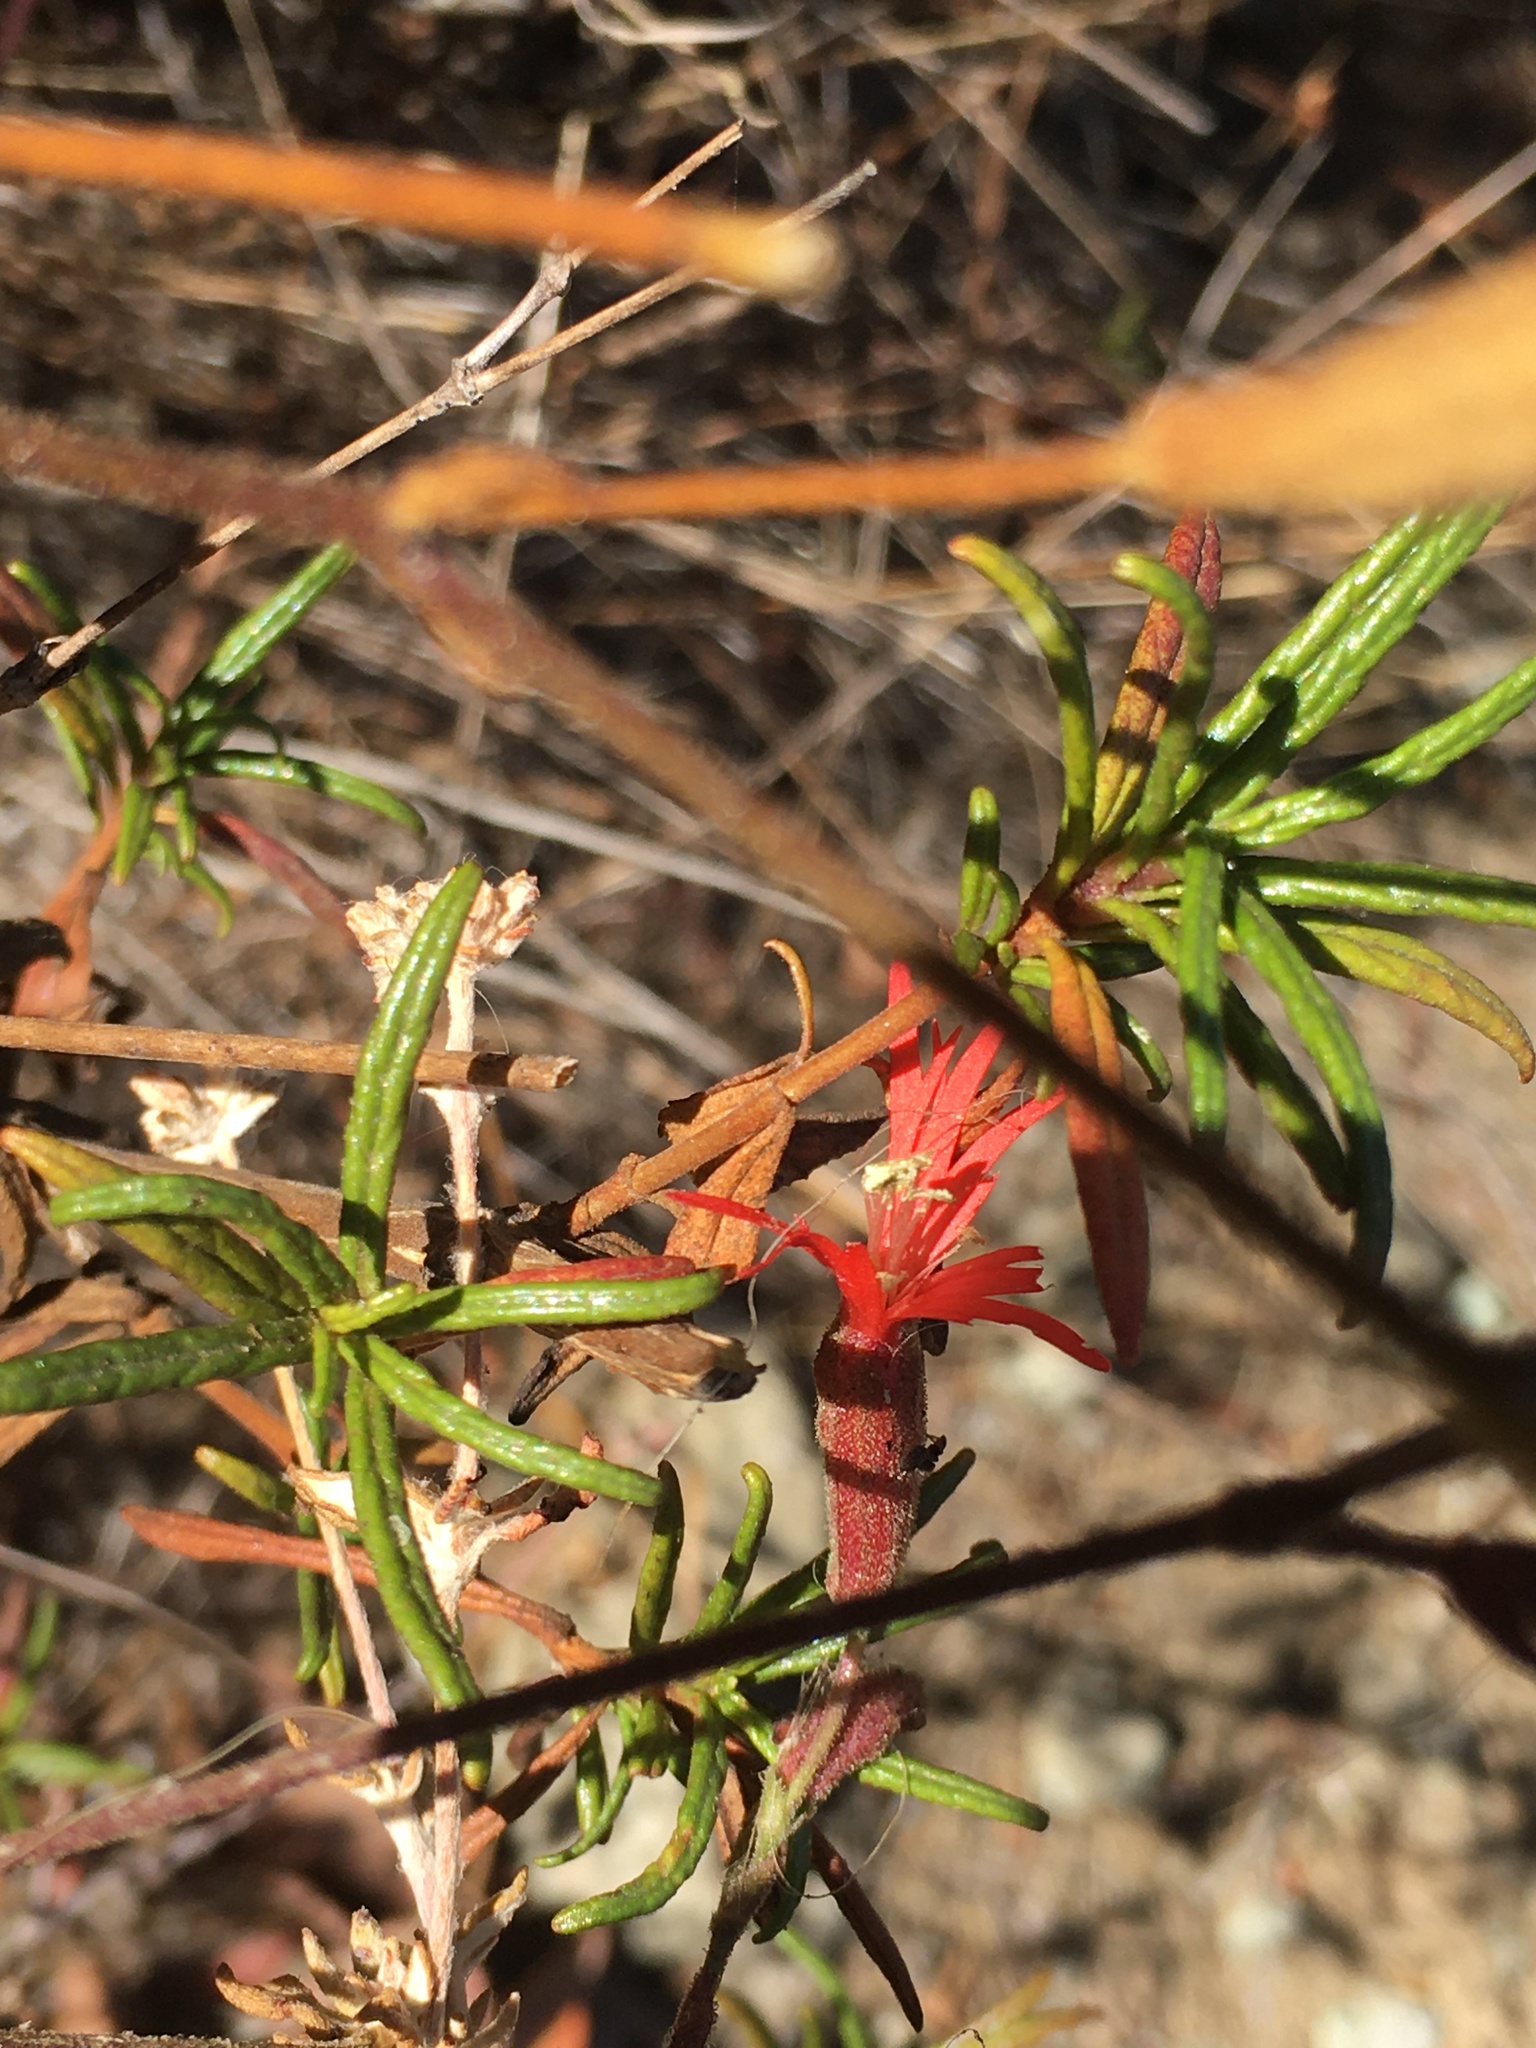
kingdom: Plantae
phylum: Tracheophyta
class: Magnoliopsida
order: Caryophyllales
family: Caryophyllaceae
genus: Silene
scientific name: Silene laciniata
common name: Indian-pink
